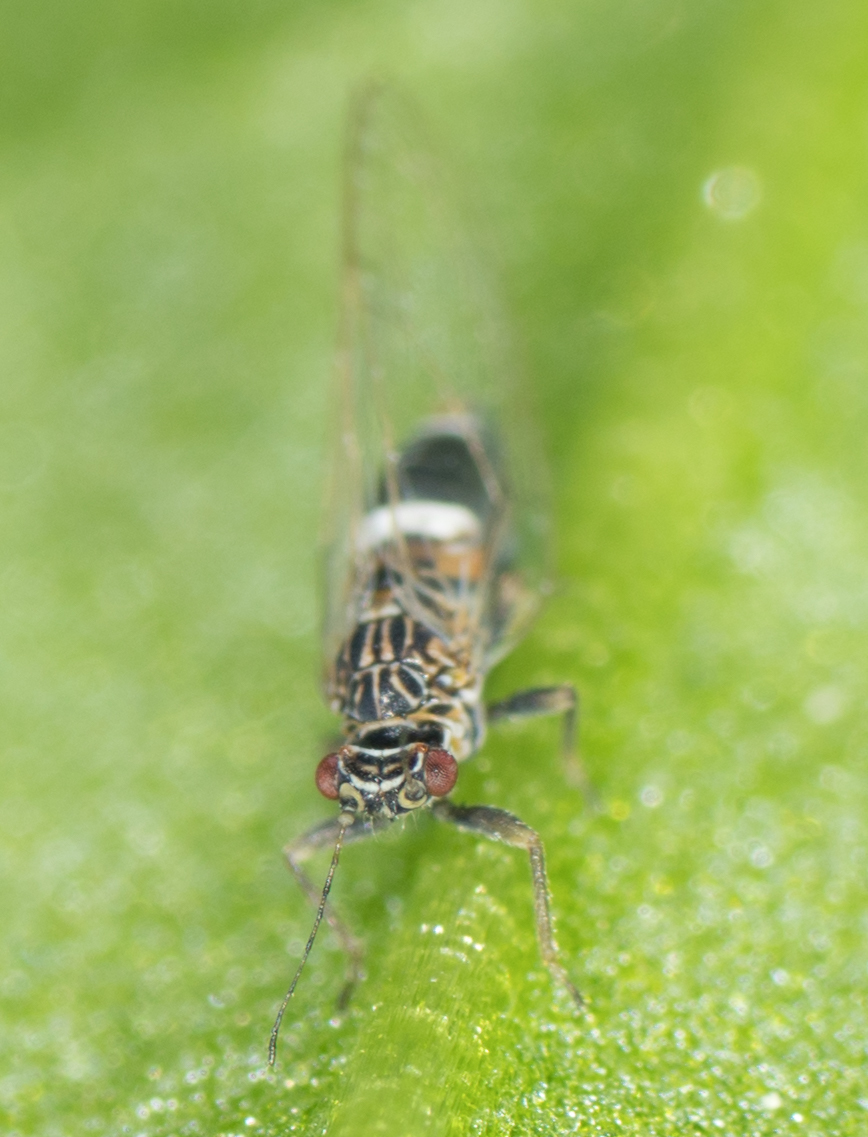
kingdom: Animalia
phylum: Arthropoda
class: Insecta
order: Hemiptera
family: Triozidae
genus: Bactericera
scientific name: Bactericera cockerelli
